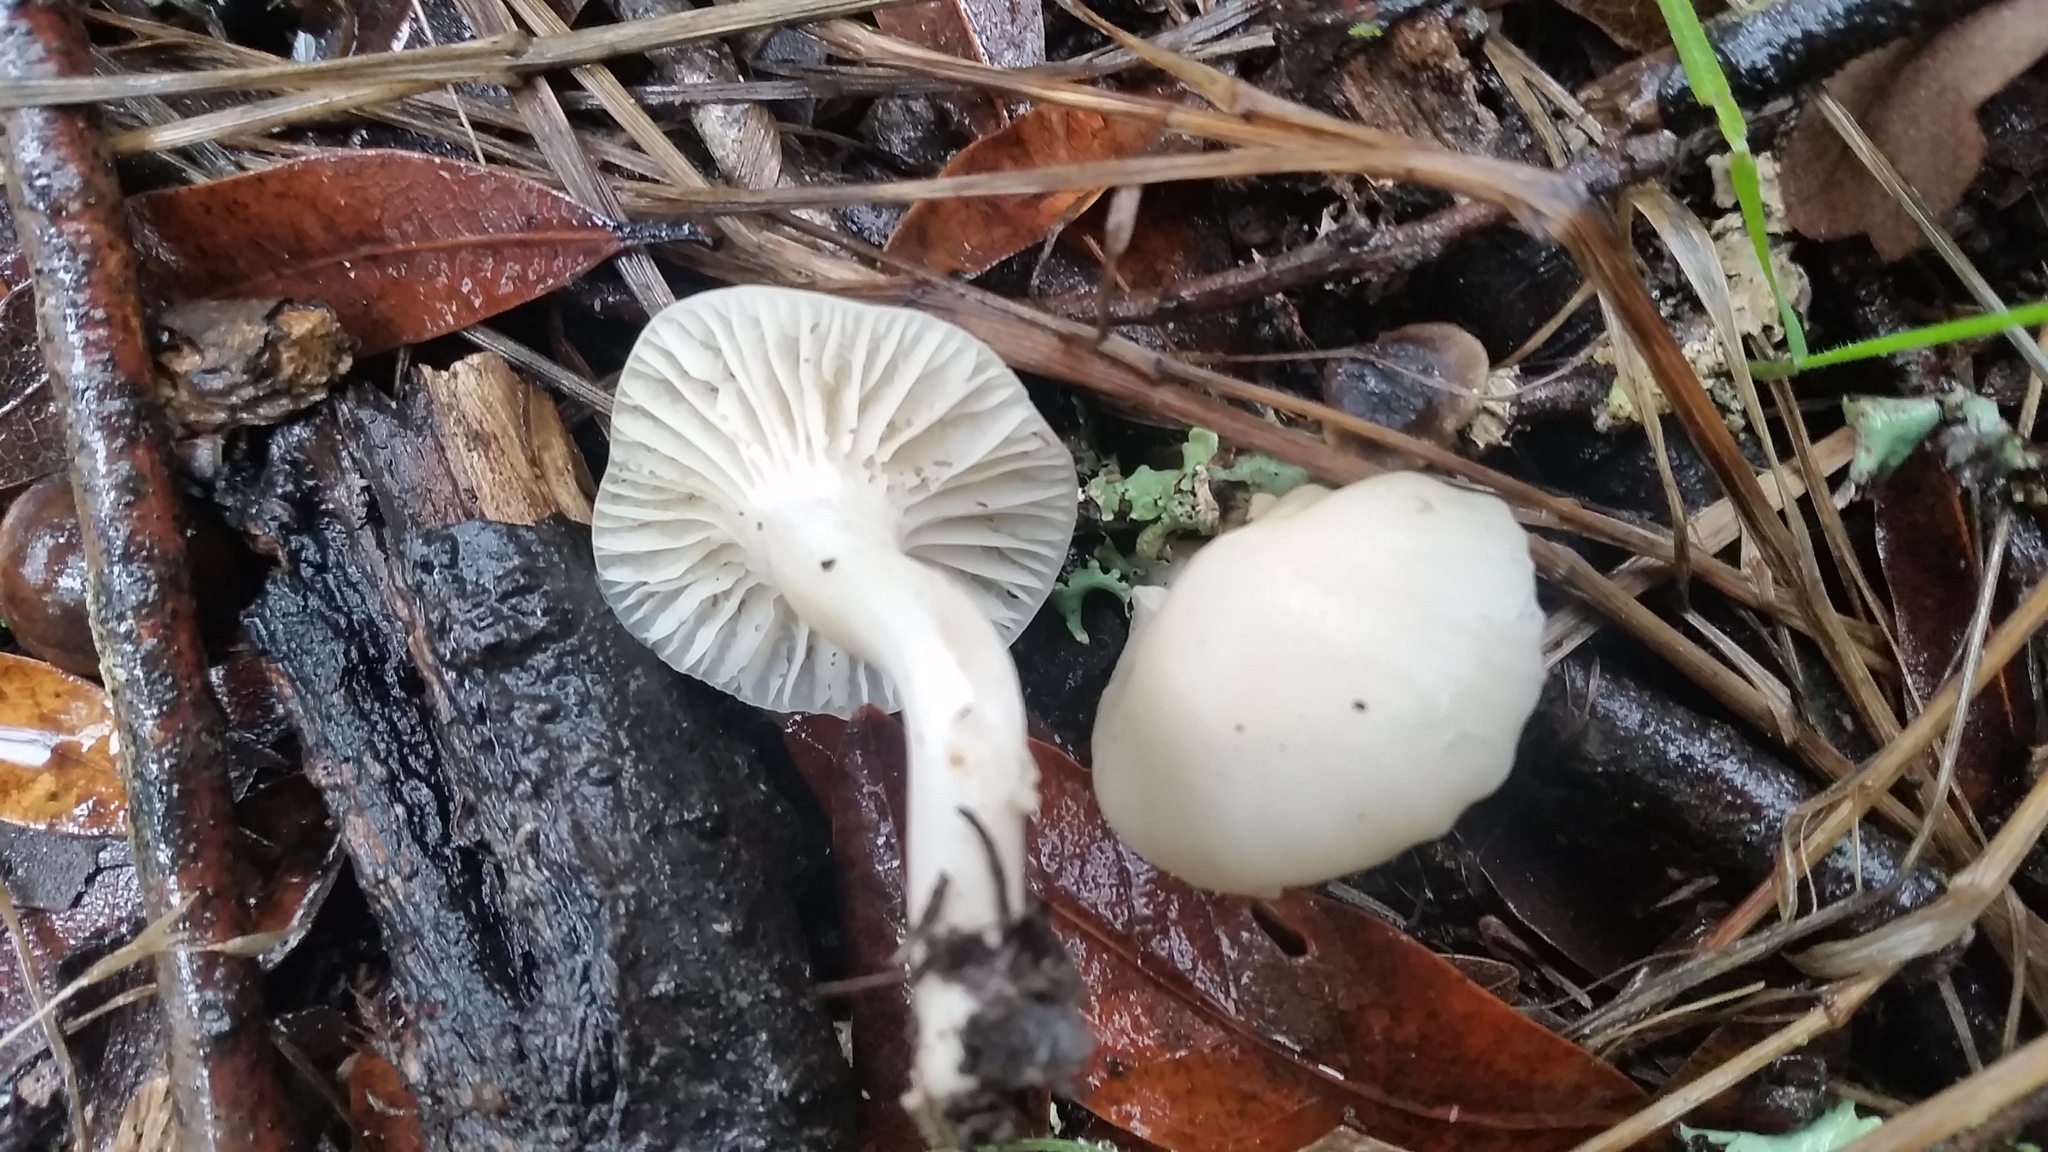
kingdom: Fungi
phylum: Basidiomycota
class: Agaricomycetes
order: Agaricales
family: Hygrophoraceae
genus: Cuphophyllus
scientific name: Cuphophyllus virgineus
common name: Snowy waxcap
